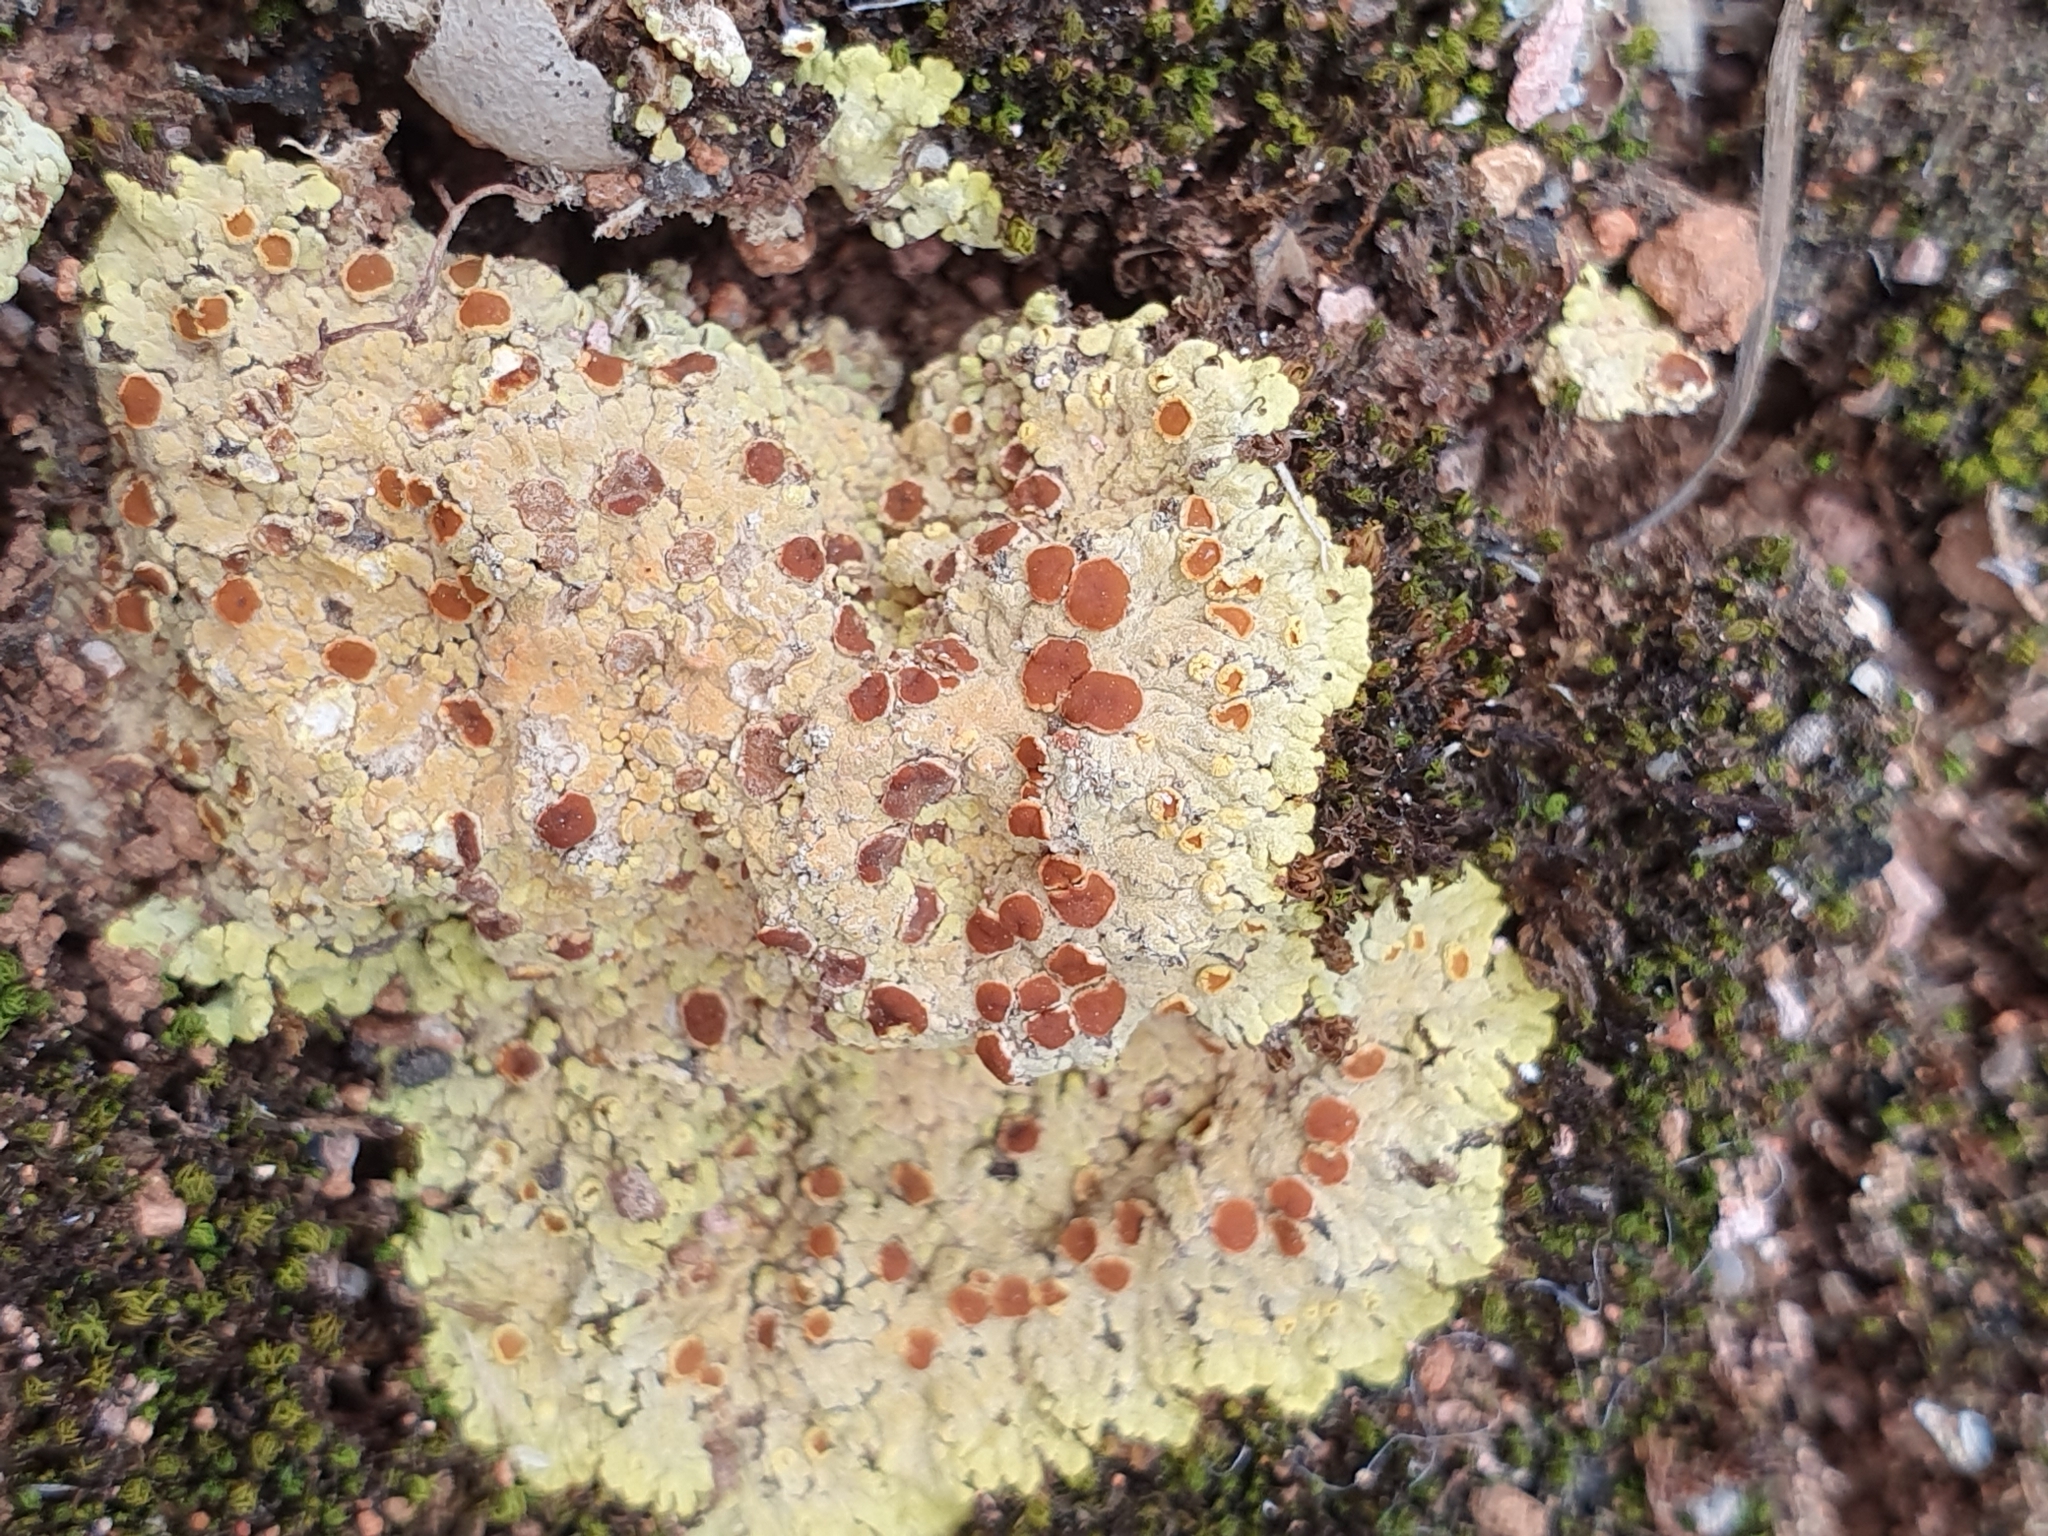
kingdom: Fungi
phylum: Ascomycota
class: Lecanoromycetes
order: Teloschistales
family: Teloschistaceae
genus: Gyalolechia
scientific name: Gyalolechia fulgens
